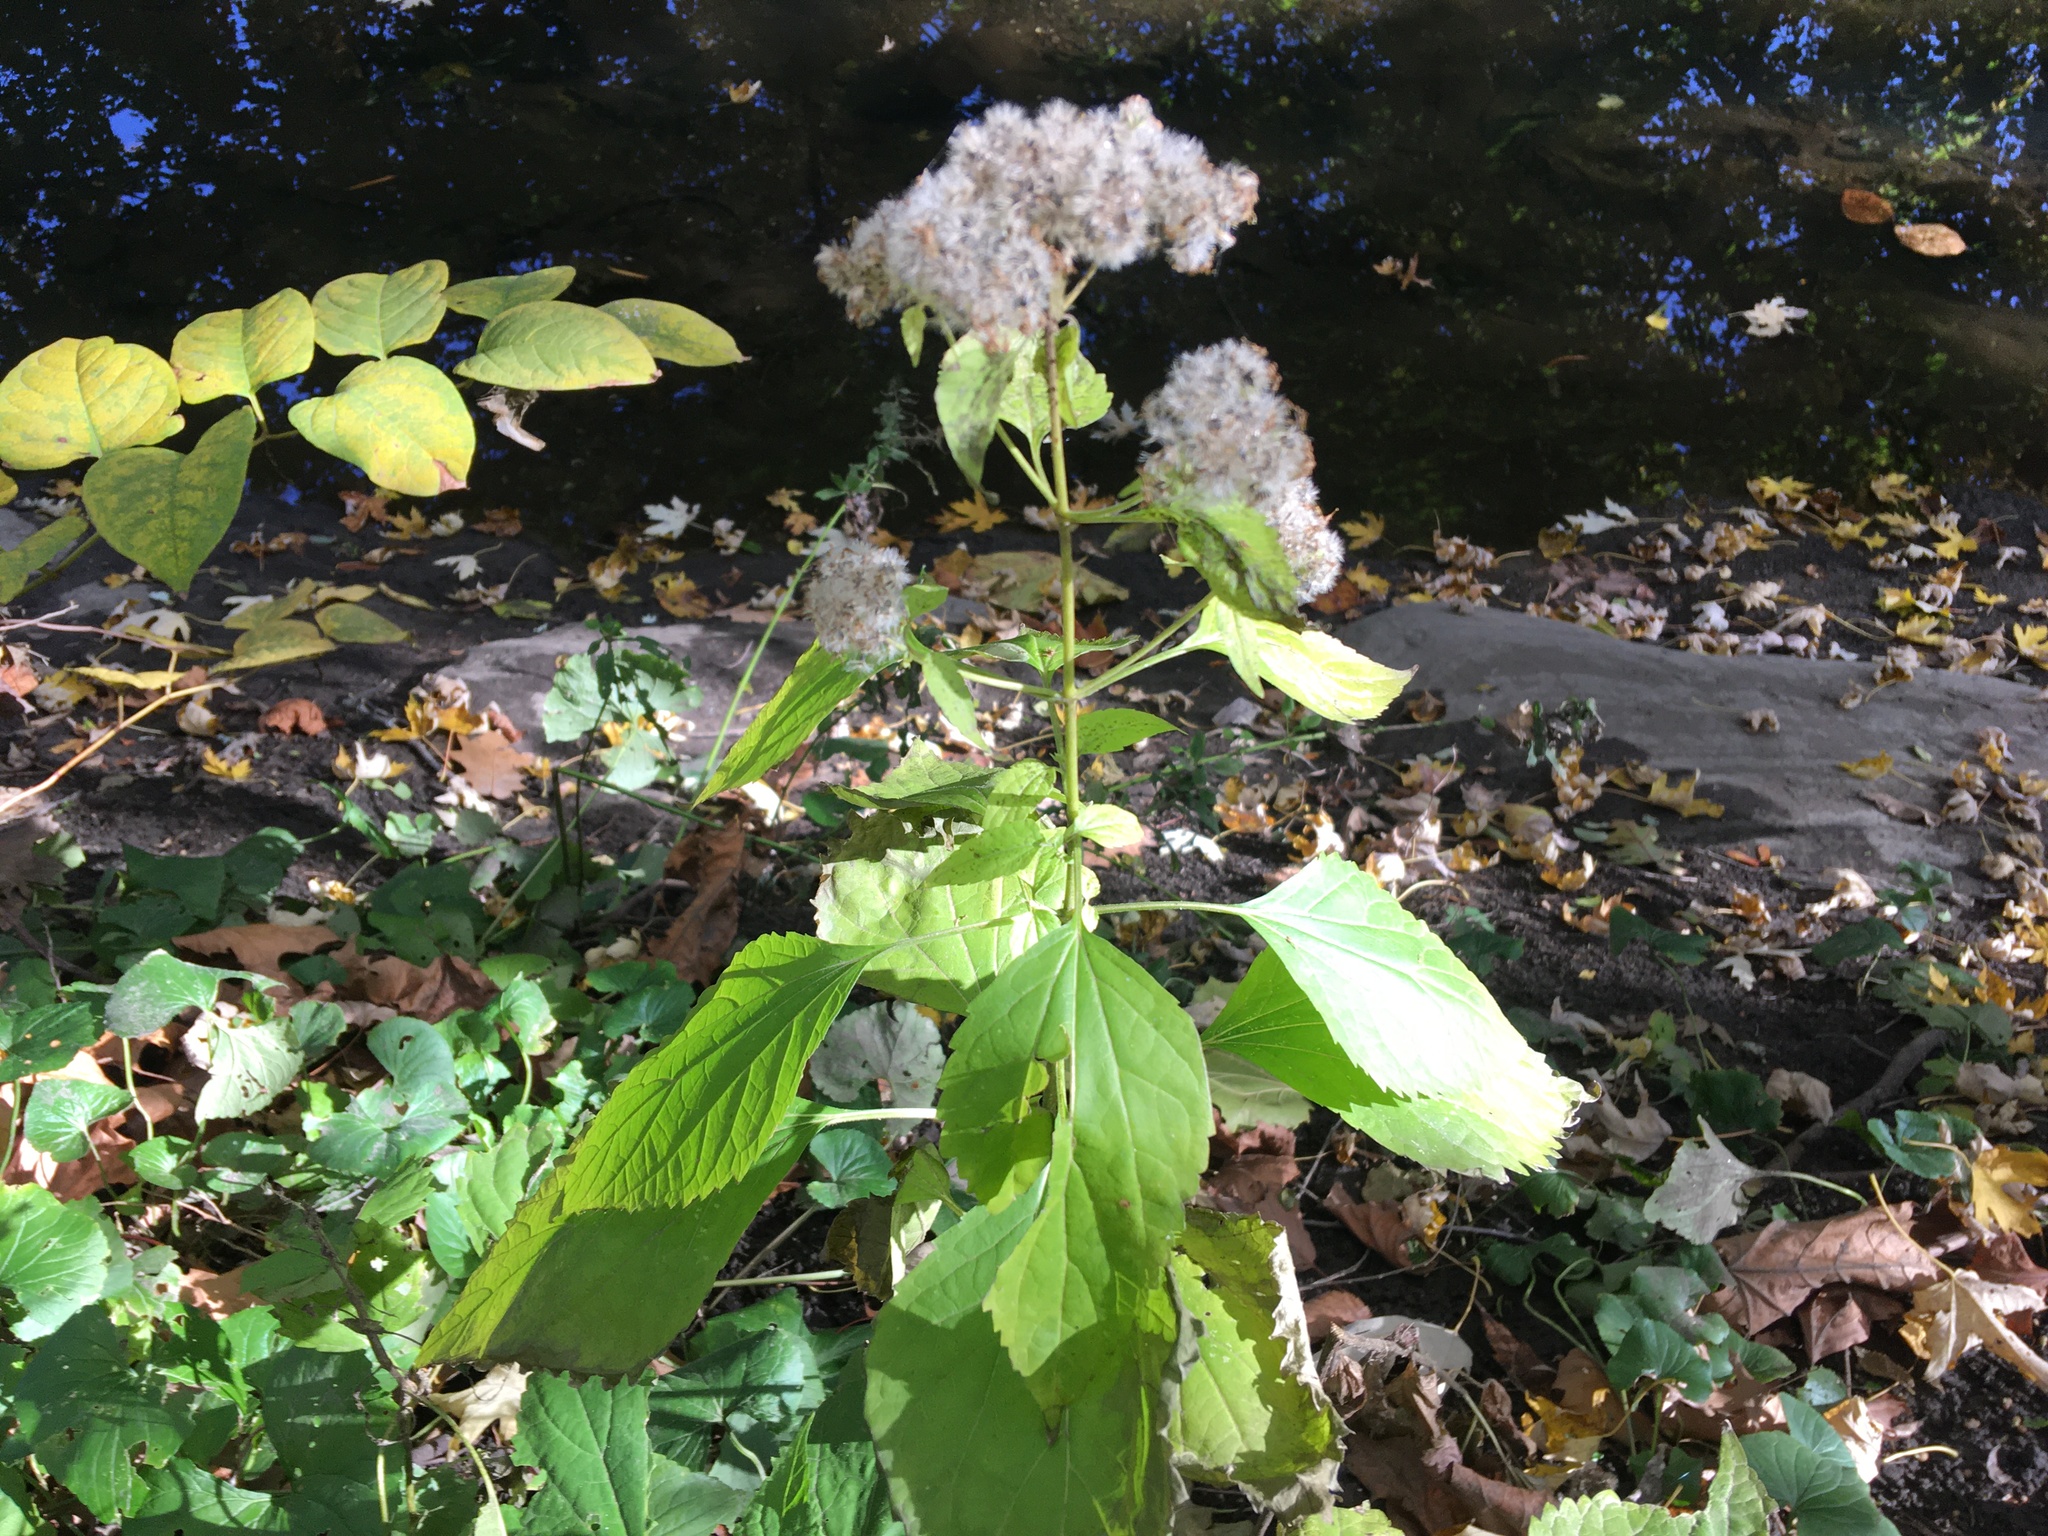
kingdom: Plantae
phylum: Tracheophyta
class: Magnoliopsida
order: Asterales
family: Asteraceae
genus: Ageratina
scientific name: Ageratina altissima
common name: White snakeroot
